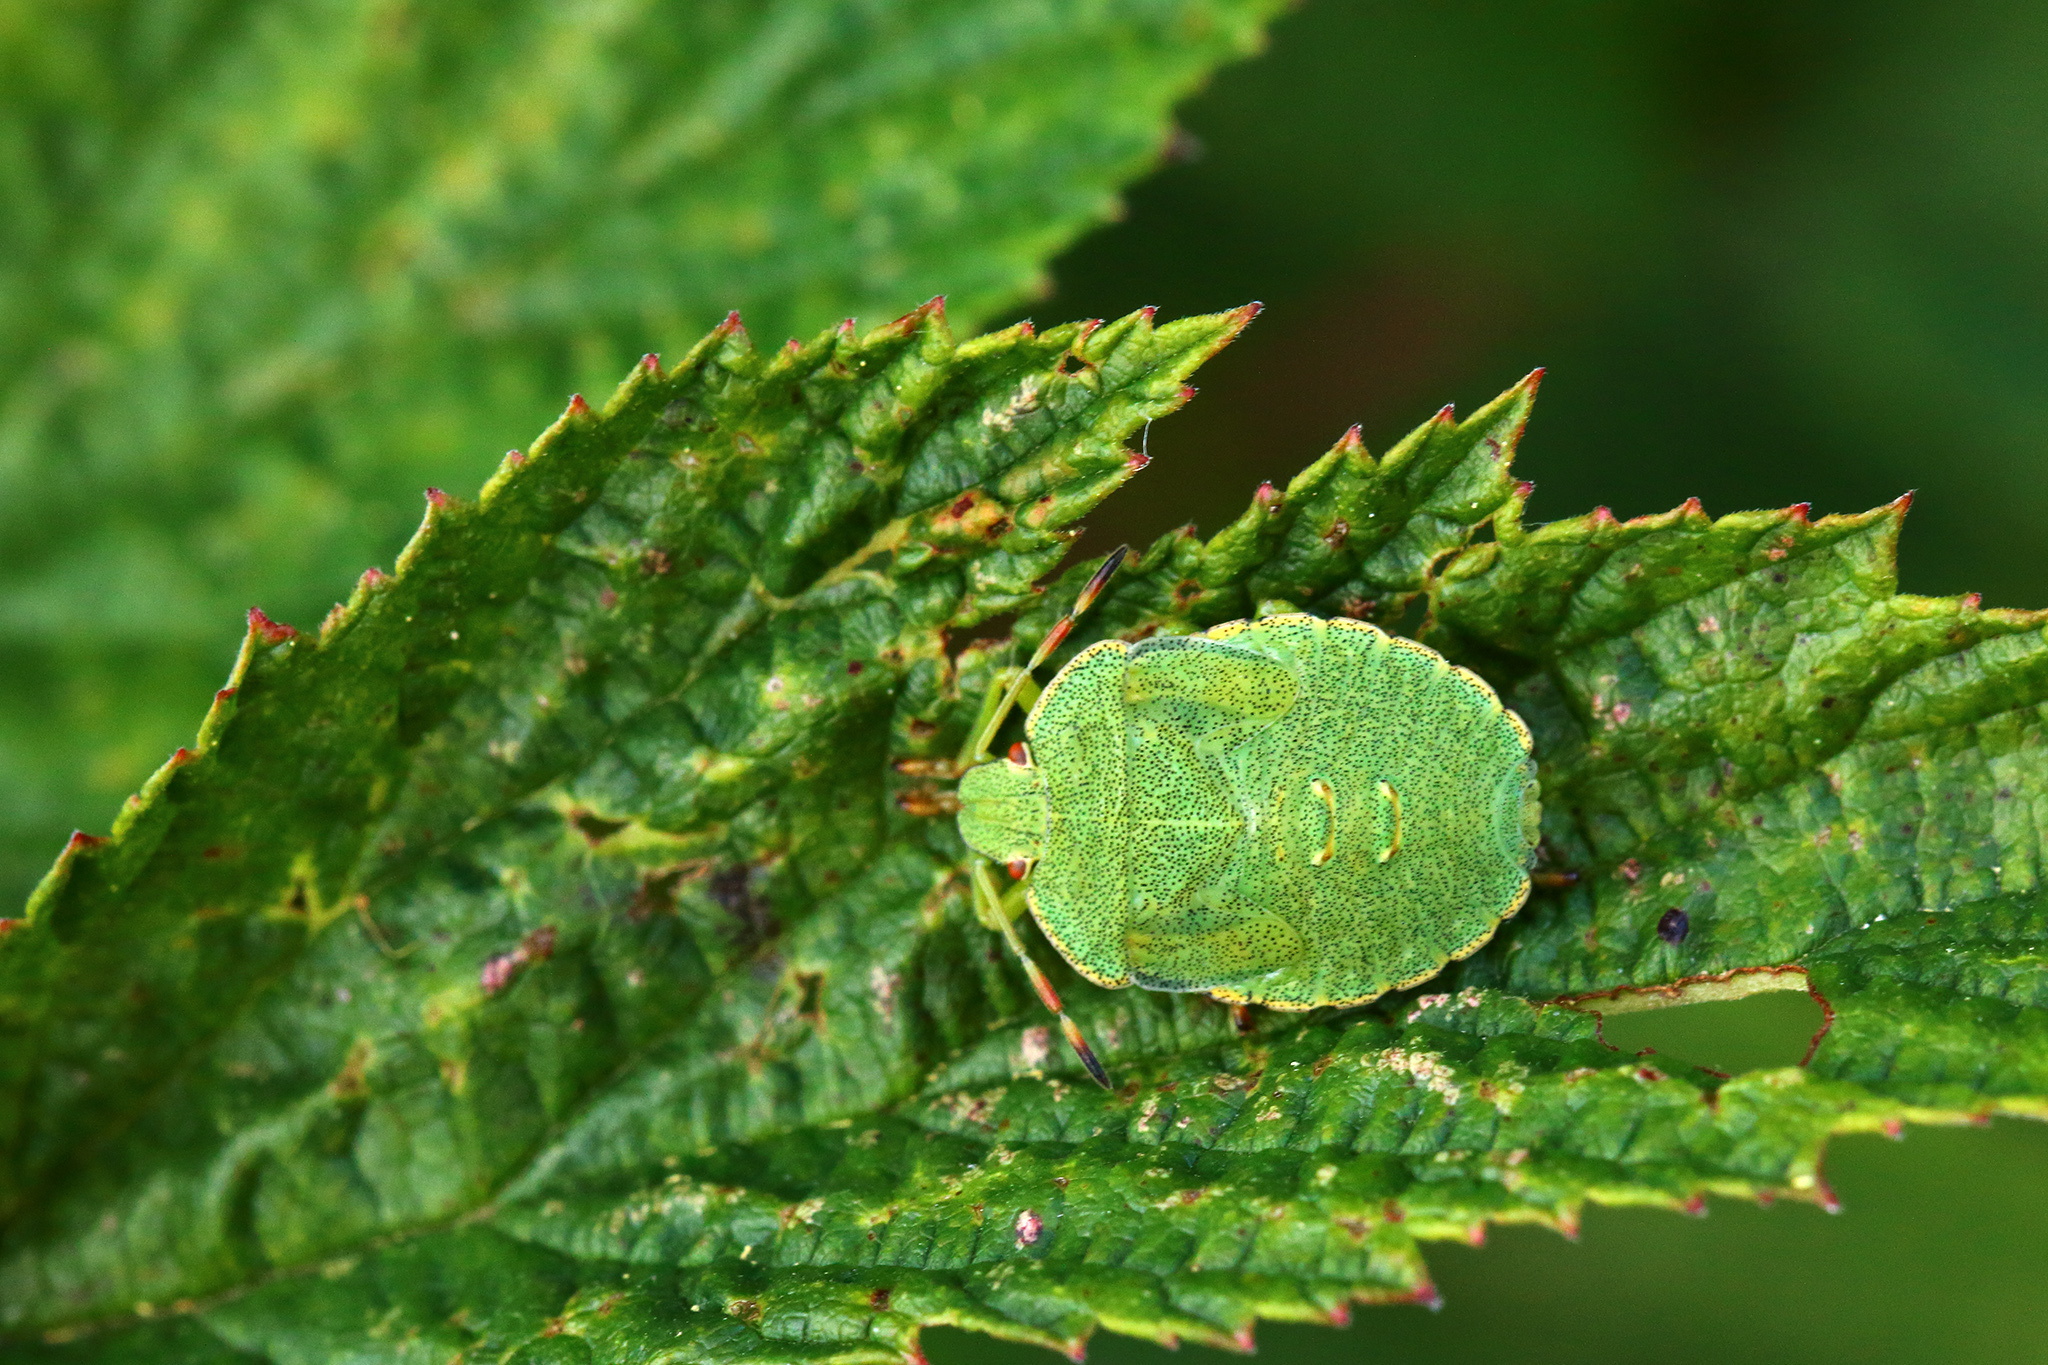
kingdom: Animalia
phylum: Arthropoda
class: Insecta
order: Hemiptera
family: Pentatomidae
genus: Palomena
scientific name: Palomena prasina
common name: Green shieldbug
